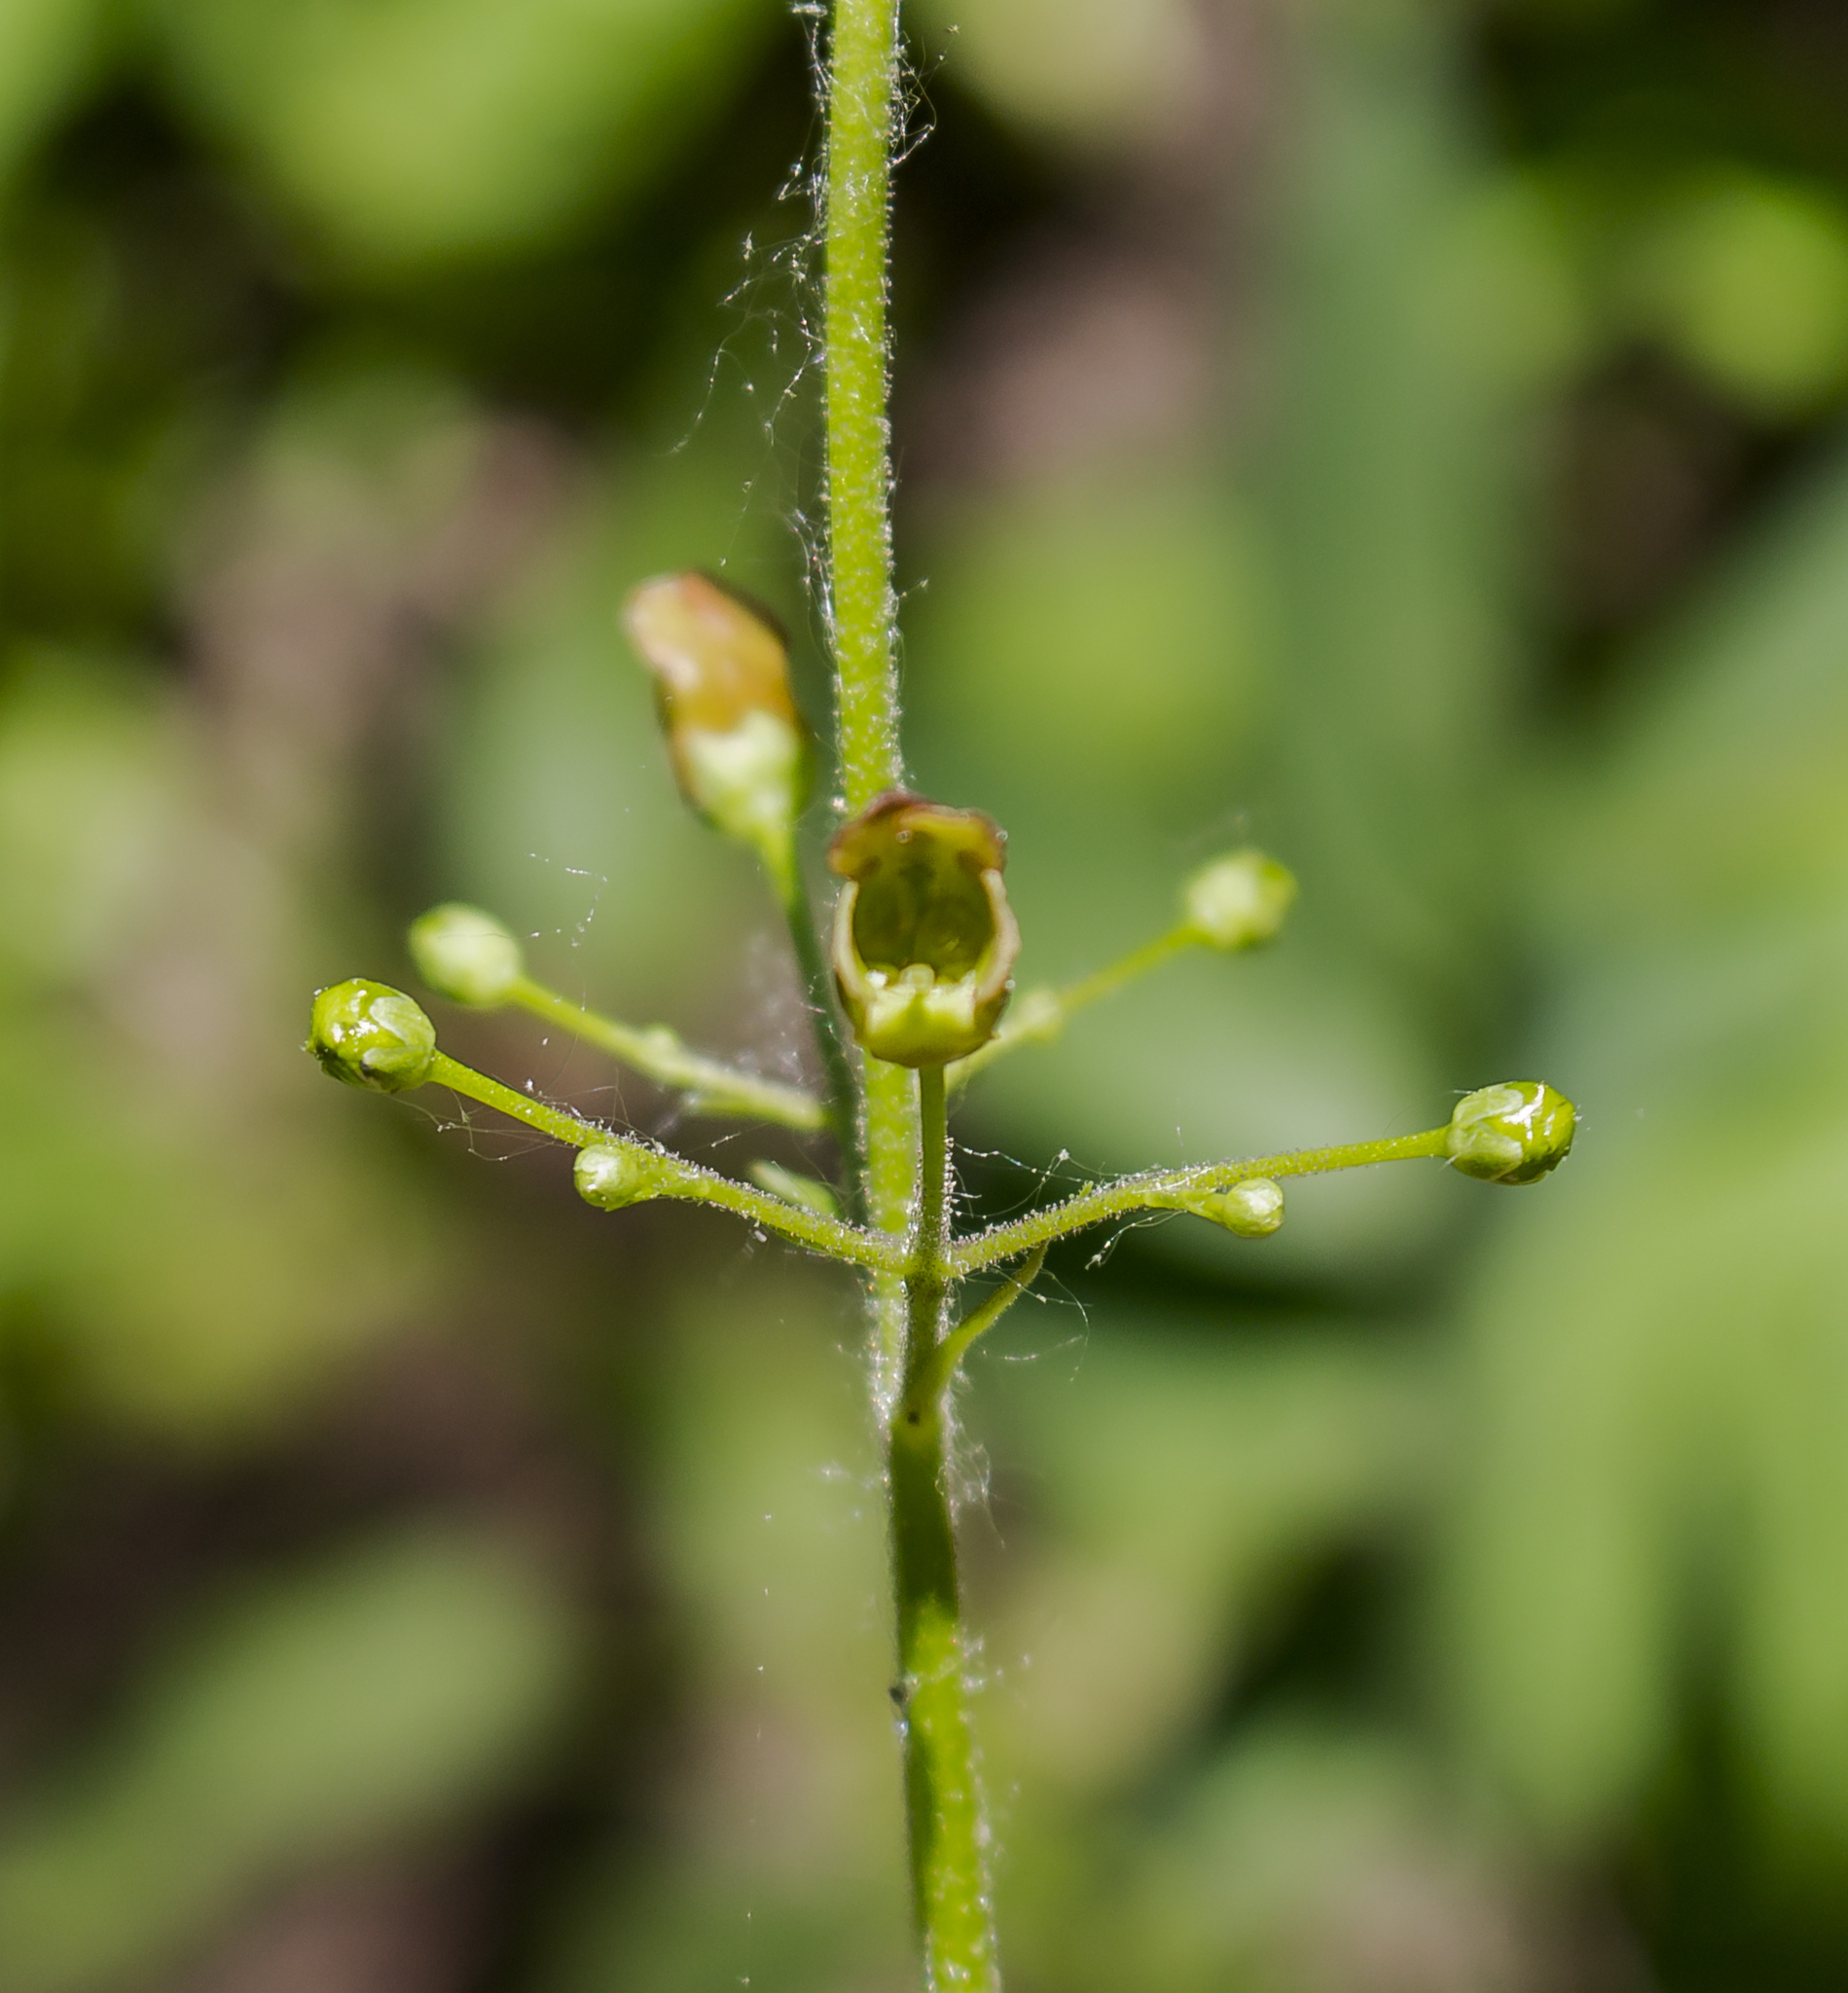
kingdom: Plantae
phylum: Tracheophyta
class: Magnoliopsida
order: Lamiales
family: Scrophulariaceae
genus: Scrophularia
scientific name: Scrophularia lanceolata
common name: American figwort
